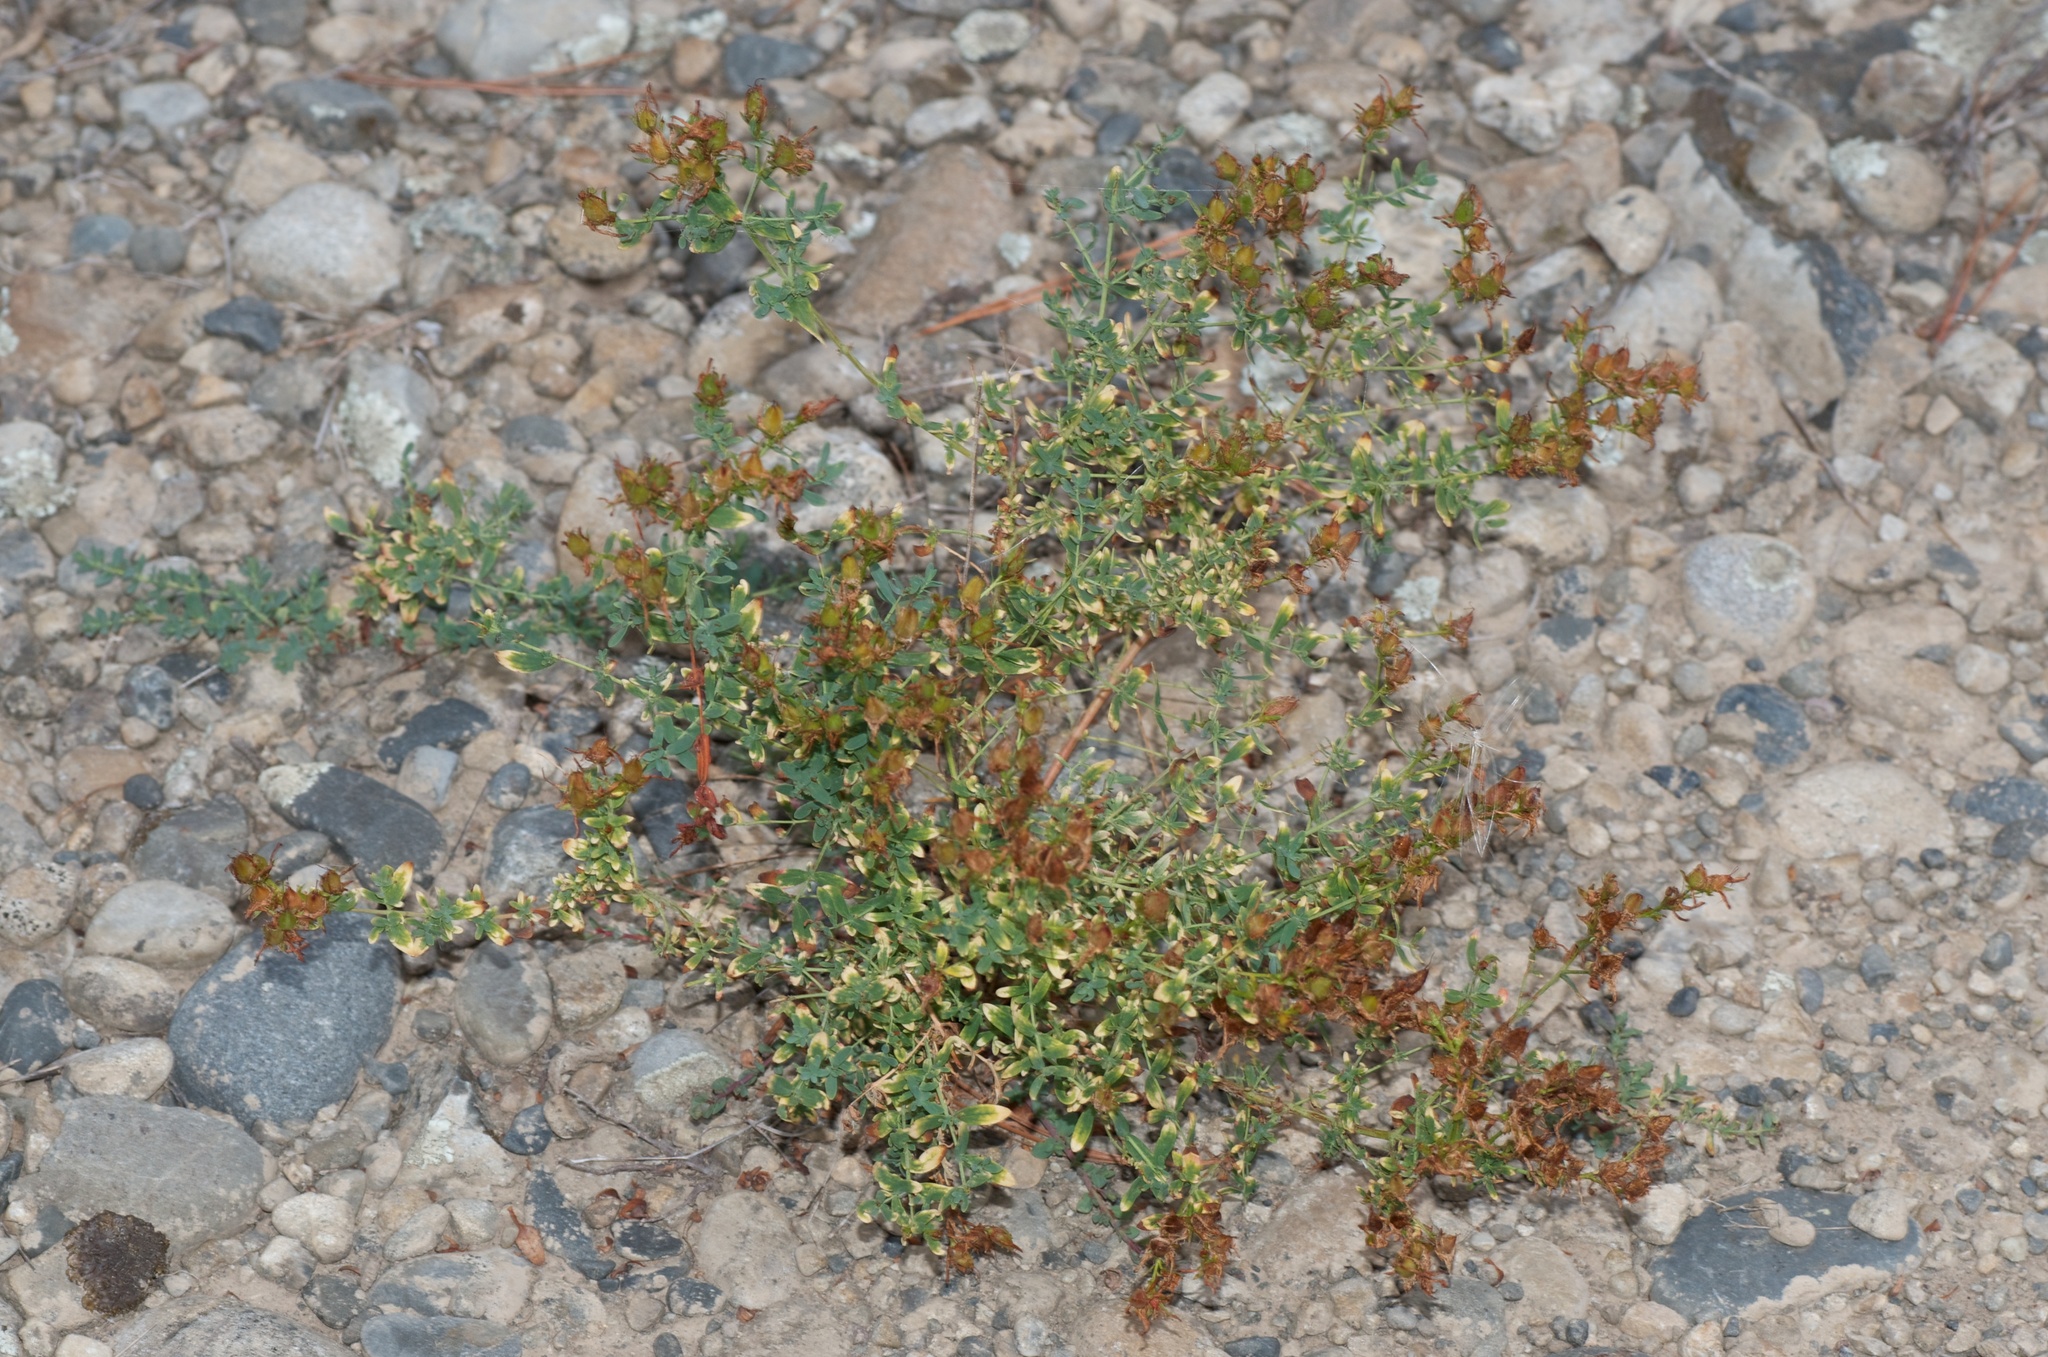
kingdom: Plantae
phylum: Tracheophyta
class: Magnoliopsida
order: Malpighiales
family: Hypericaceae
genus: Hypericum
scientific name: Hypericum perforatum
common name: Common st. johnswort
